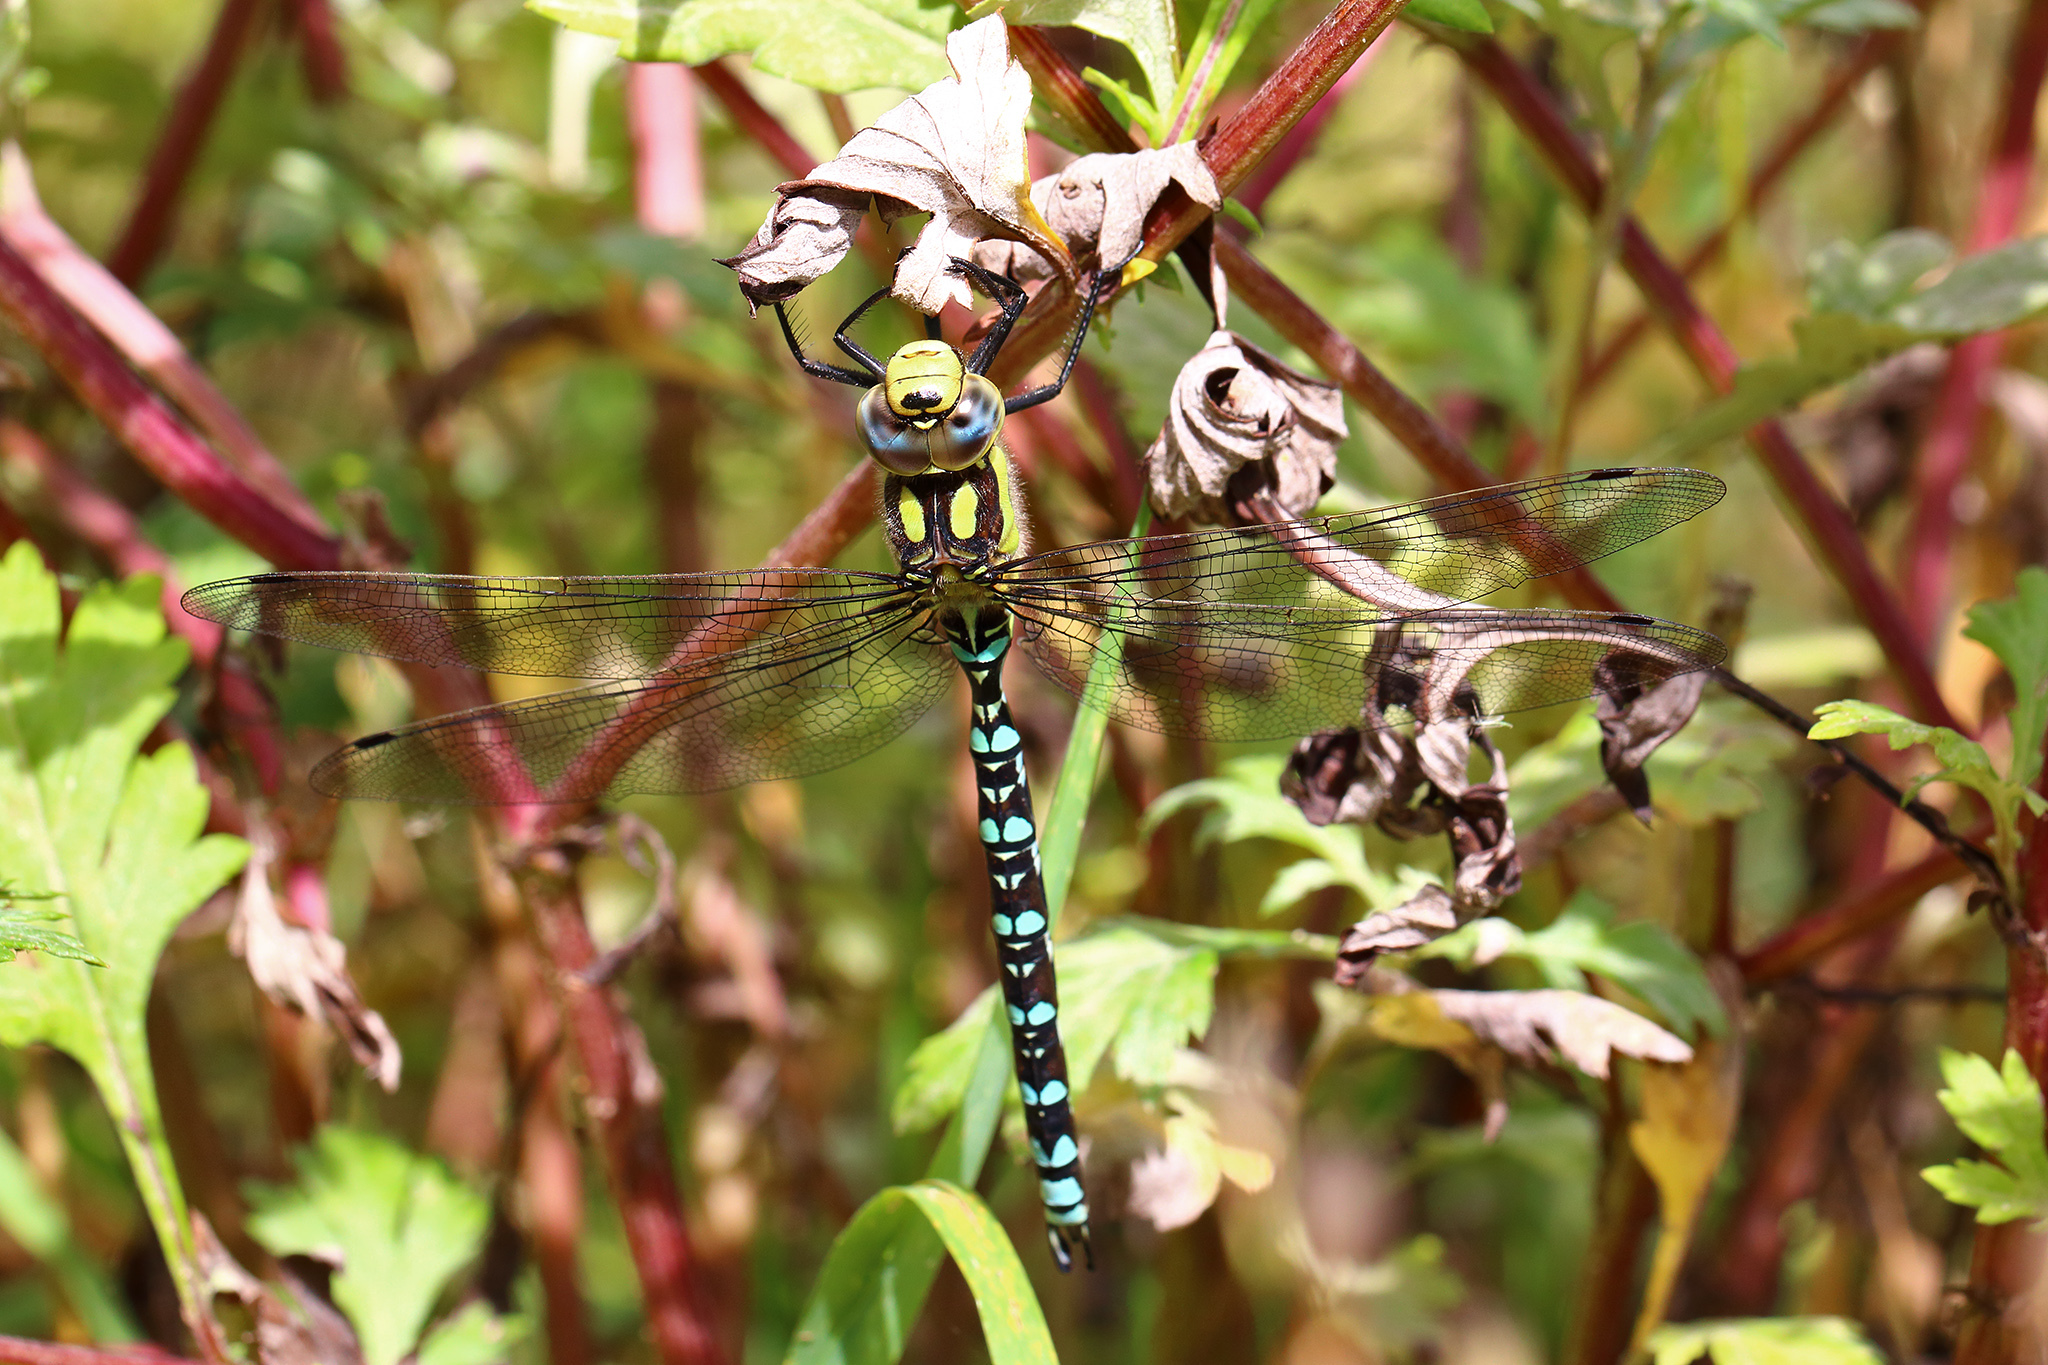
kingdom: Animalia
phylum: Arthropoda
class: Insecta
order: Odonata
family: Aeshnidae
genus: Aeshna
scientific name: Aeshna cyanea
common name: Southern hawker
